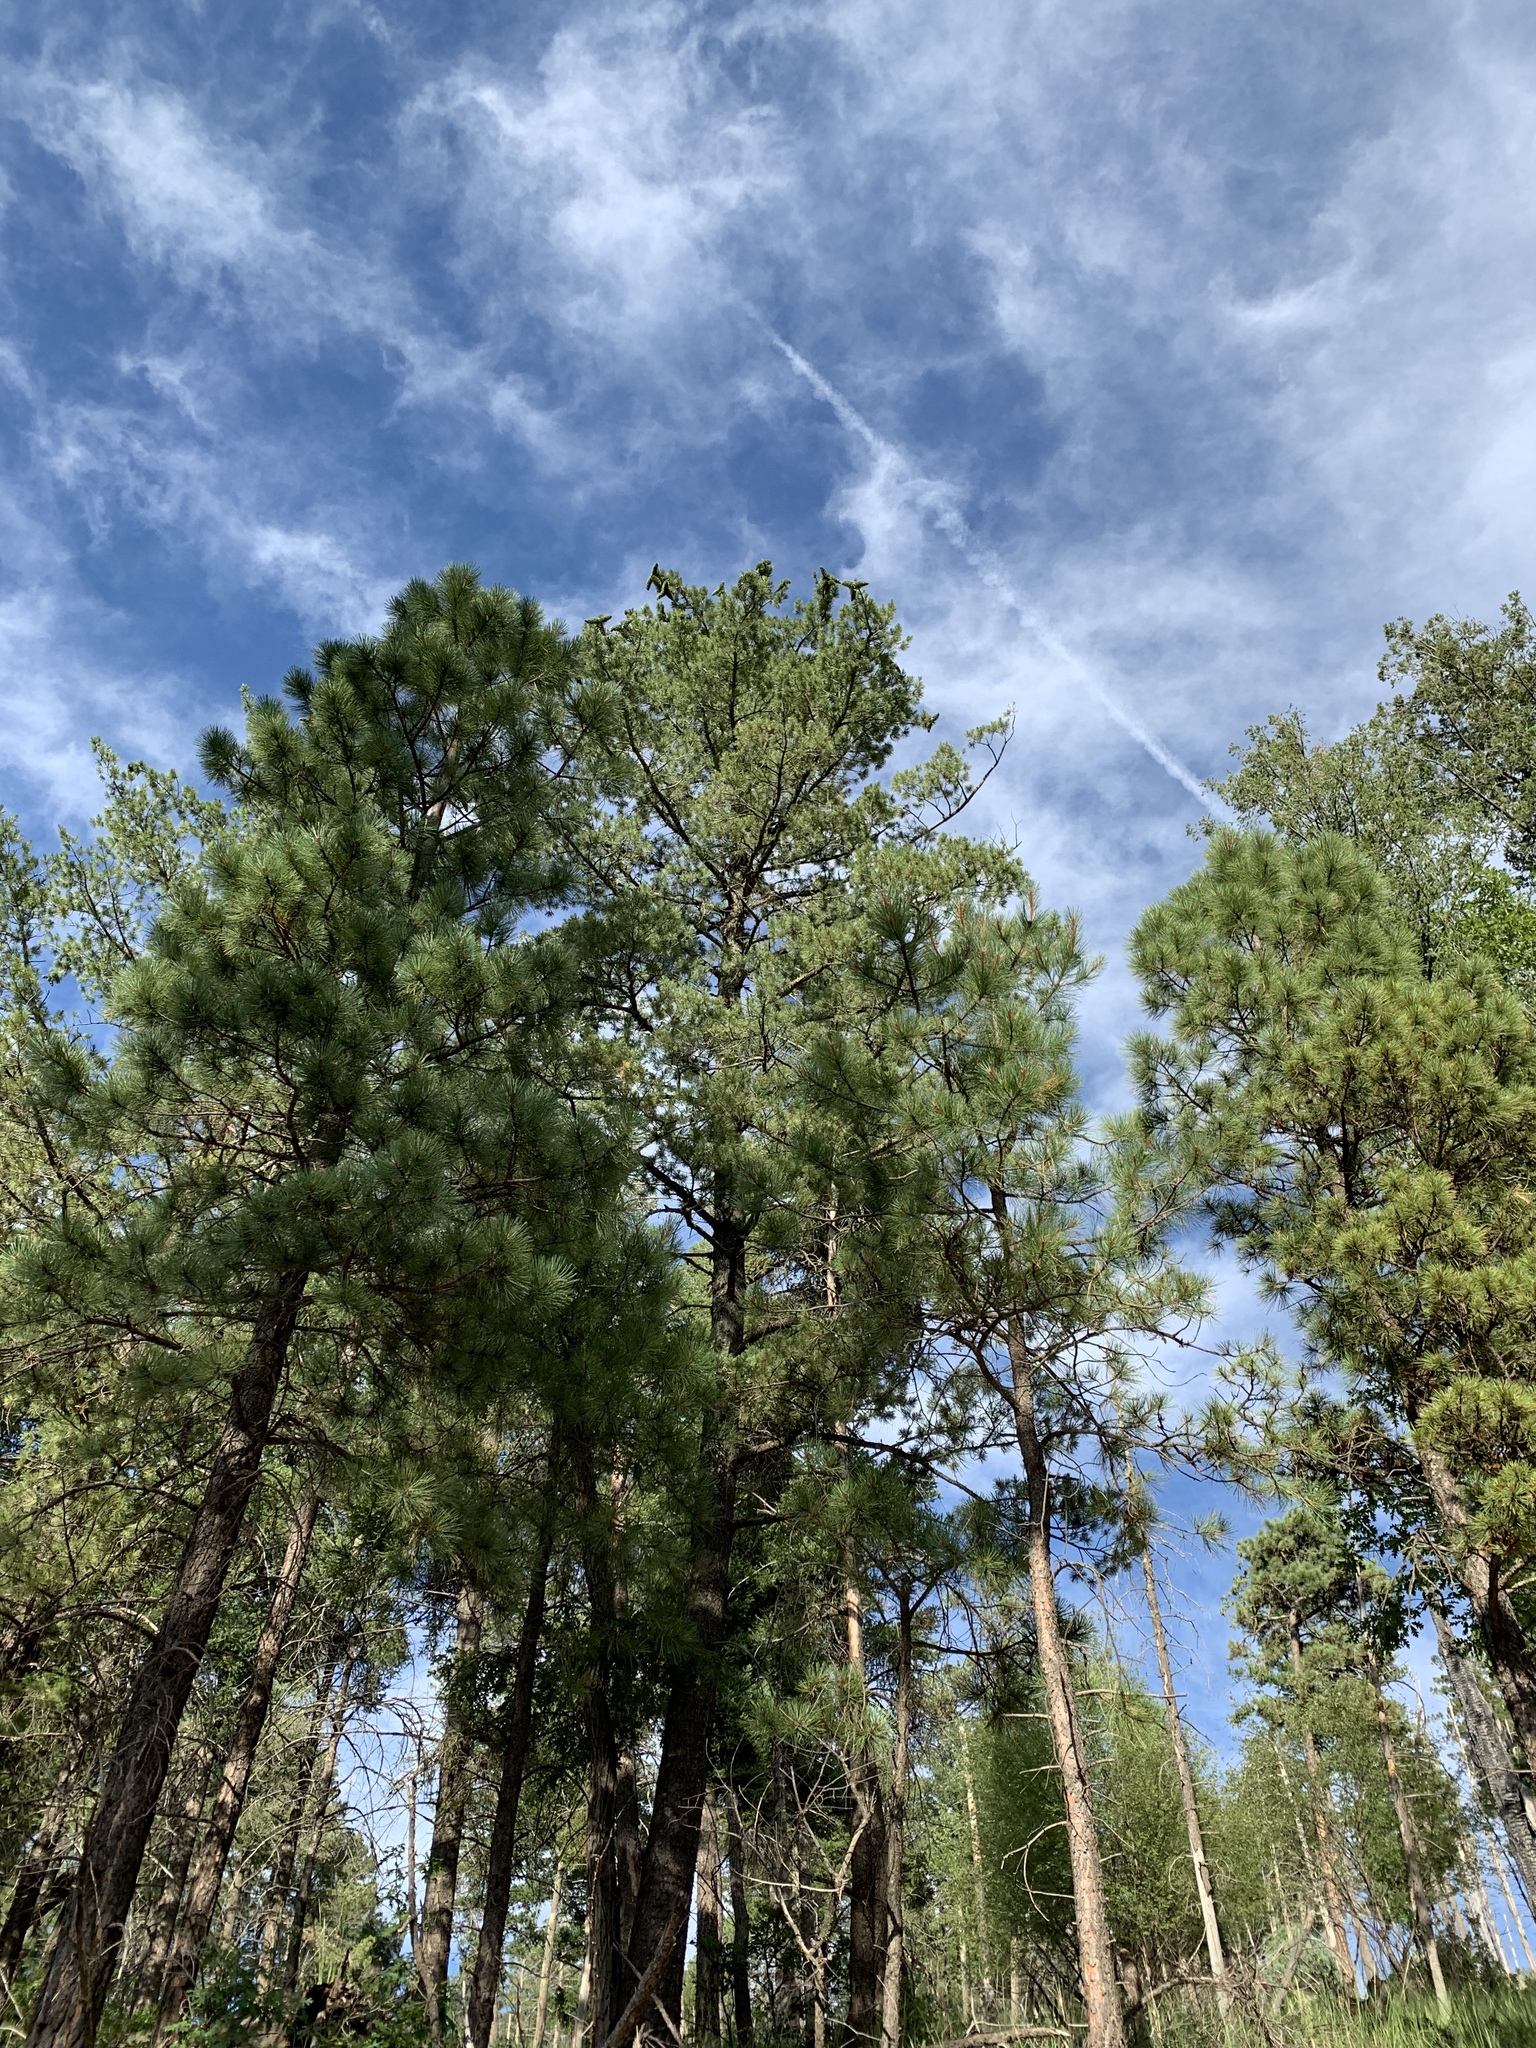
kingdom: Plantae
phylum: Tracheophyta
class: Pinopsida
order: Pinales
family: Pinaceae
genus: Pinus
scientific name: Pinus strobiformis
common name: Southwestern white pine
